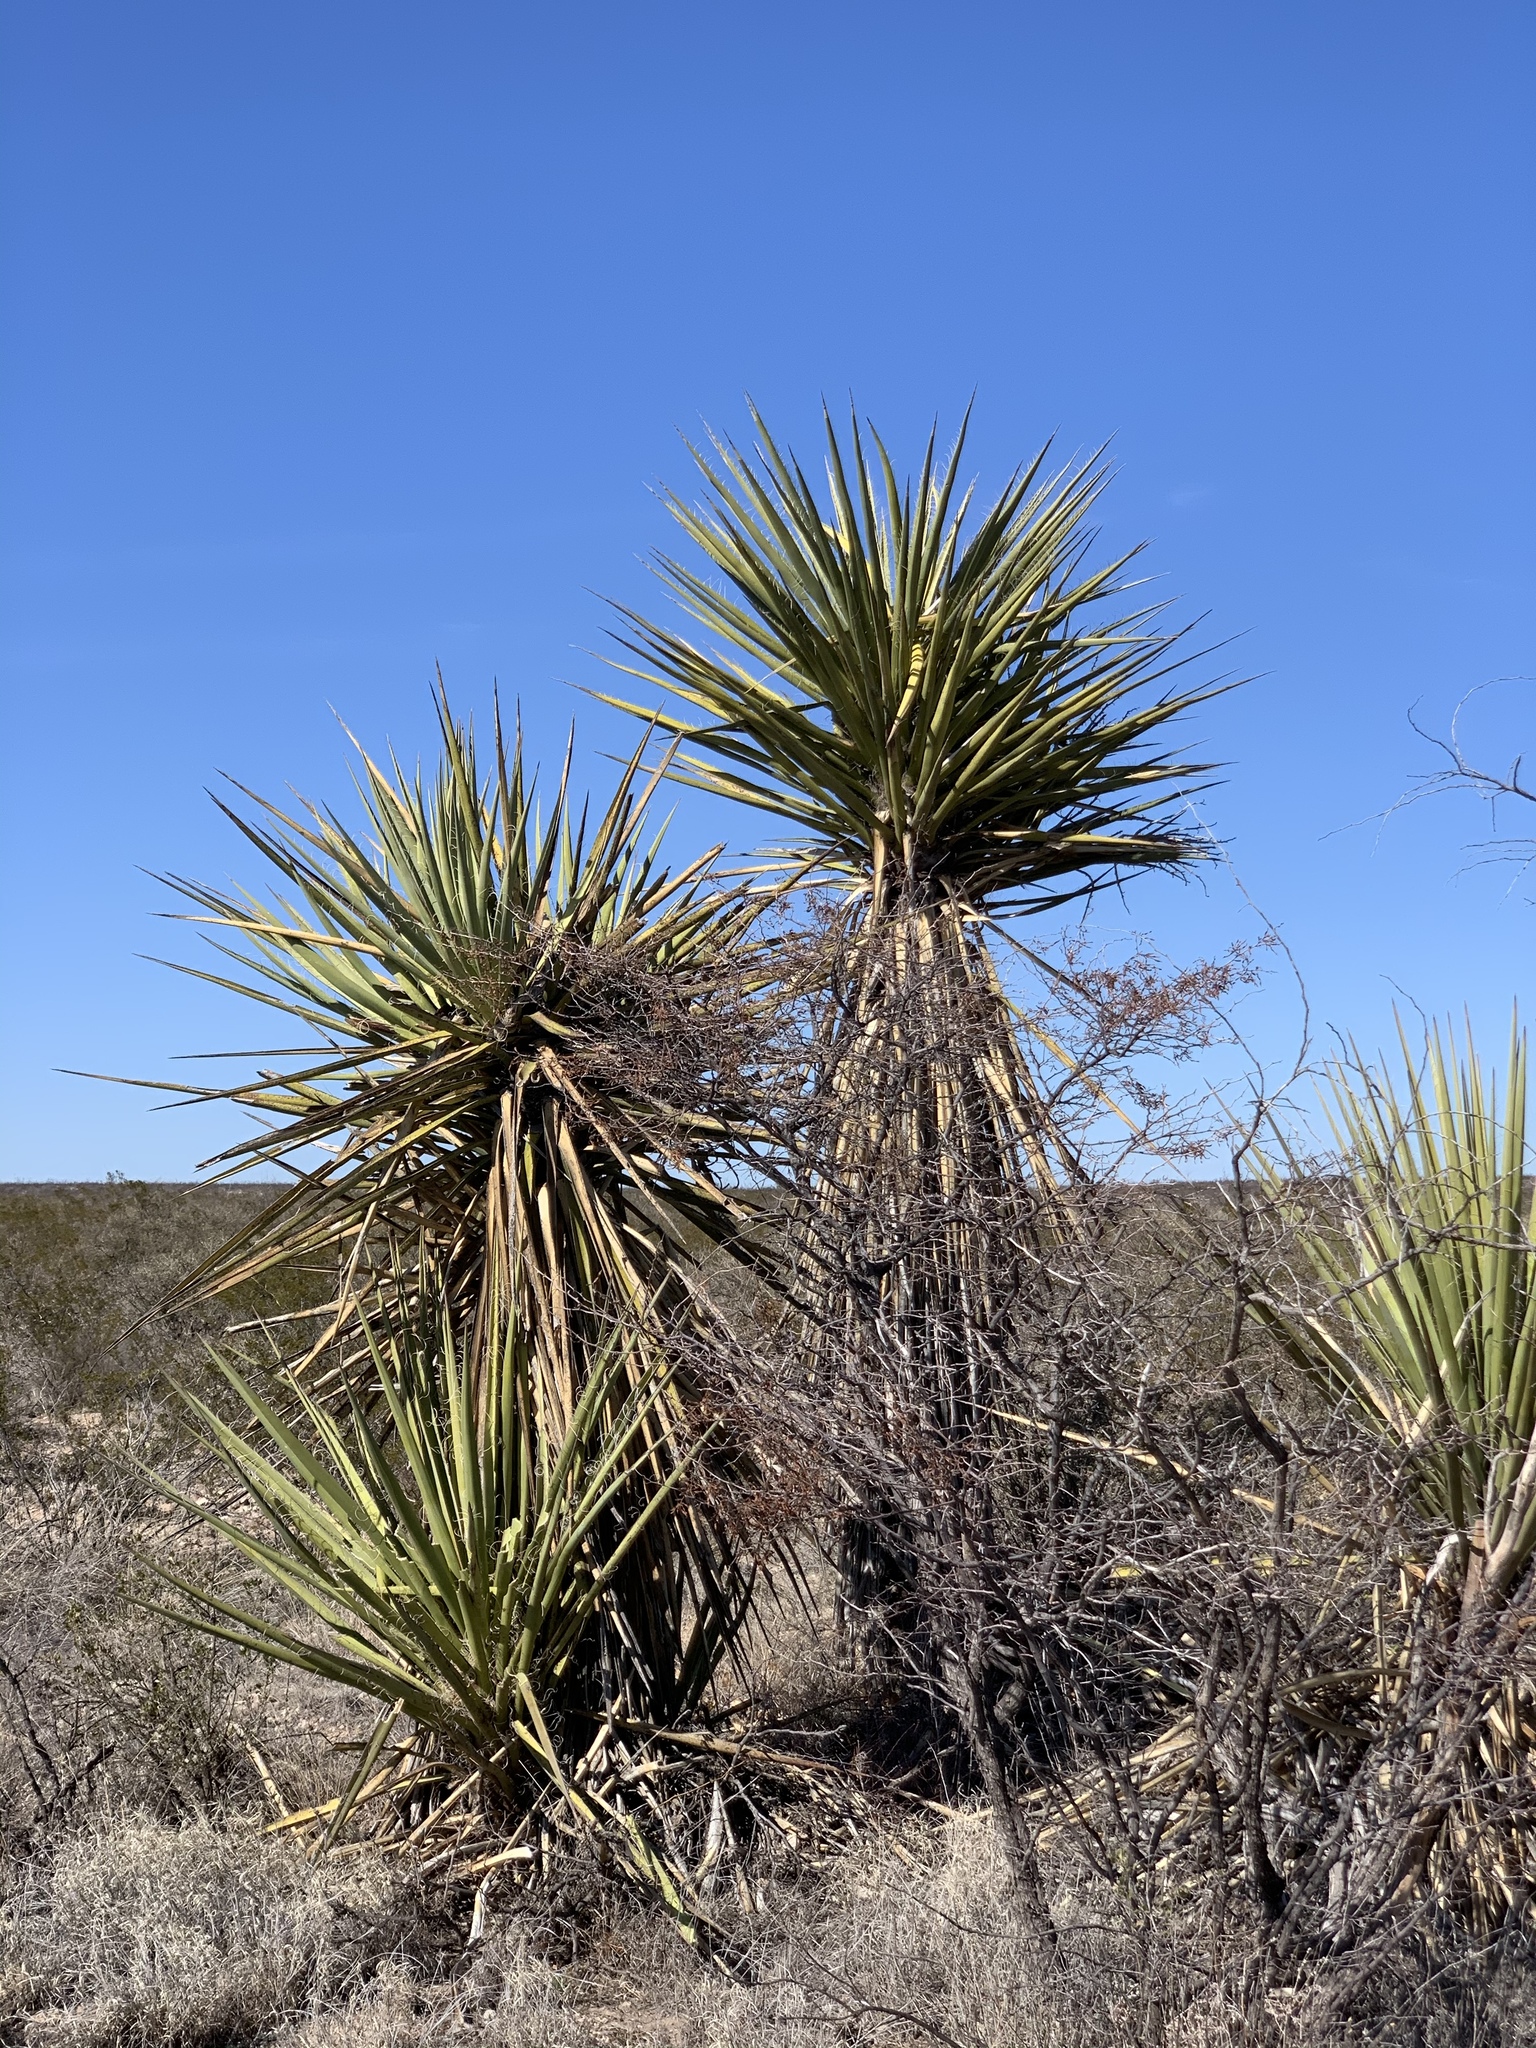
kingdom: Plantae
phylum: Tracheophyta
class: Liliopsida
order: Asparagales
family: Asparagaceae
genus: Yucca
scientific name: Yucca faxoniana
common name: Spanish dagger
